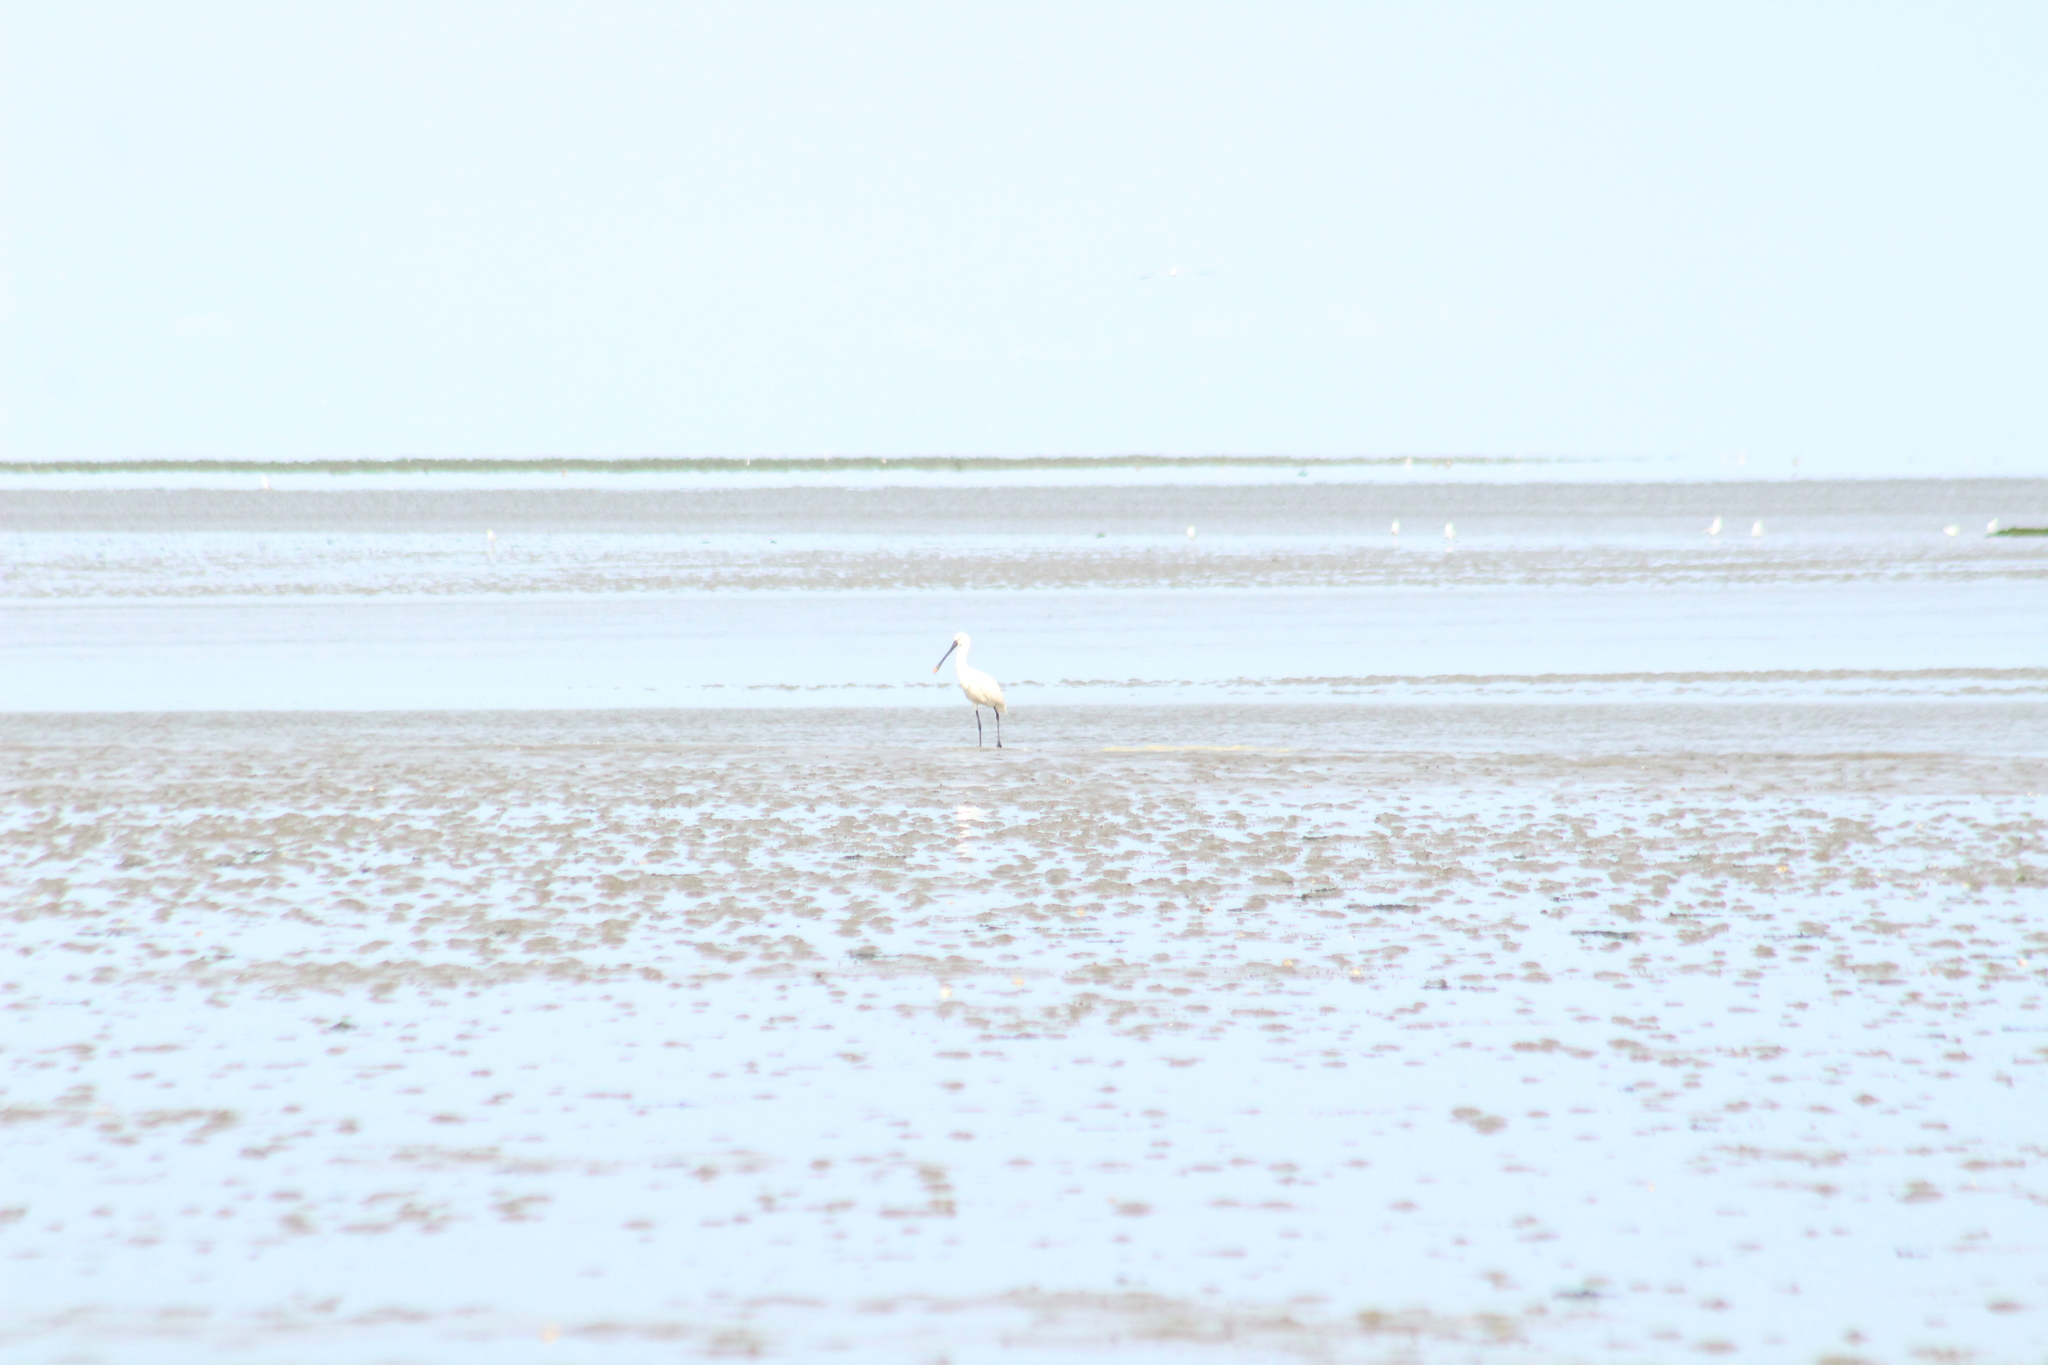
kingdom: Animalia
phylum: Chordata
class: Aves
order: Pelecaniformes
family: Threskiornithidae
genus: Platalea
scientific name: Platalea leucorodia
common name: Eurasian spoonbill
